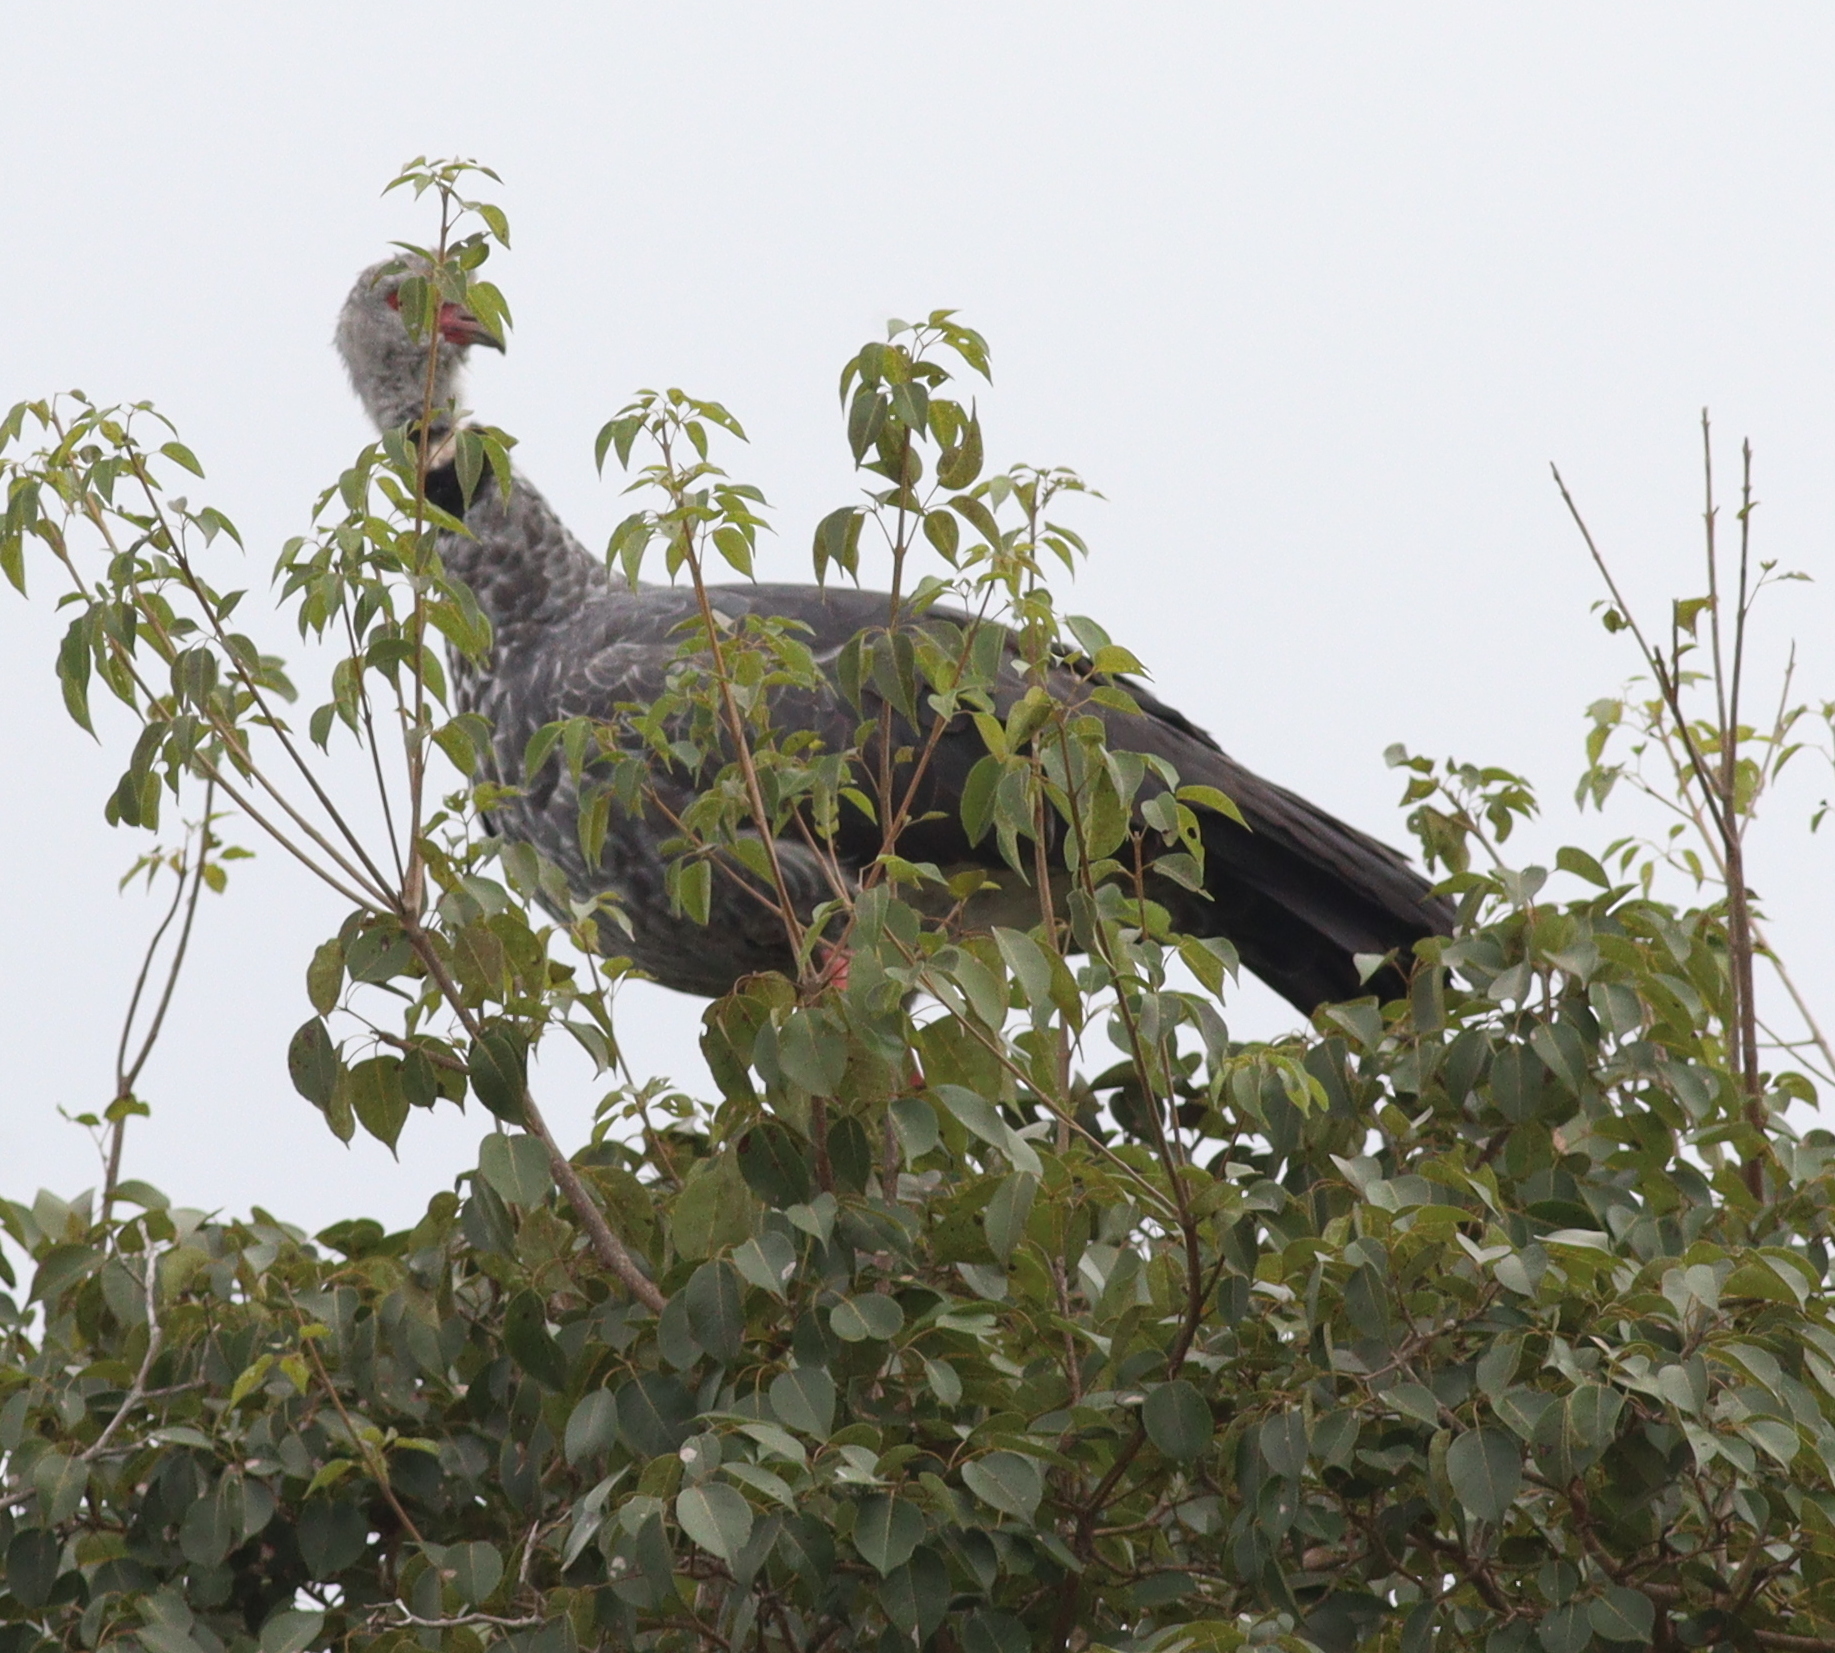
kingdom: Animalia
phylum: Chordata
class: Aves
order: Anseriformes
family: Anhimidae
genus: Chauna
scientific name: Chauna torquata
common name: Southern screamer
